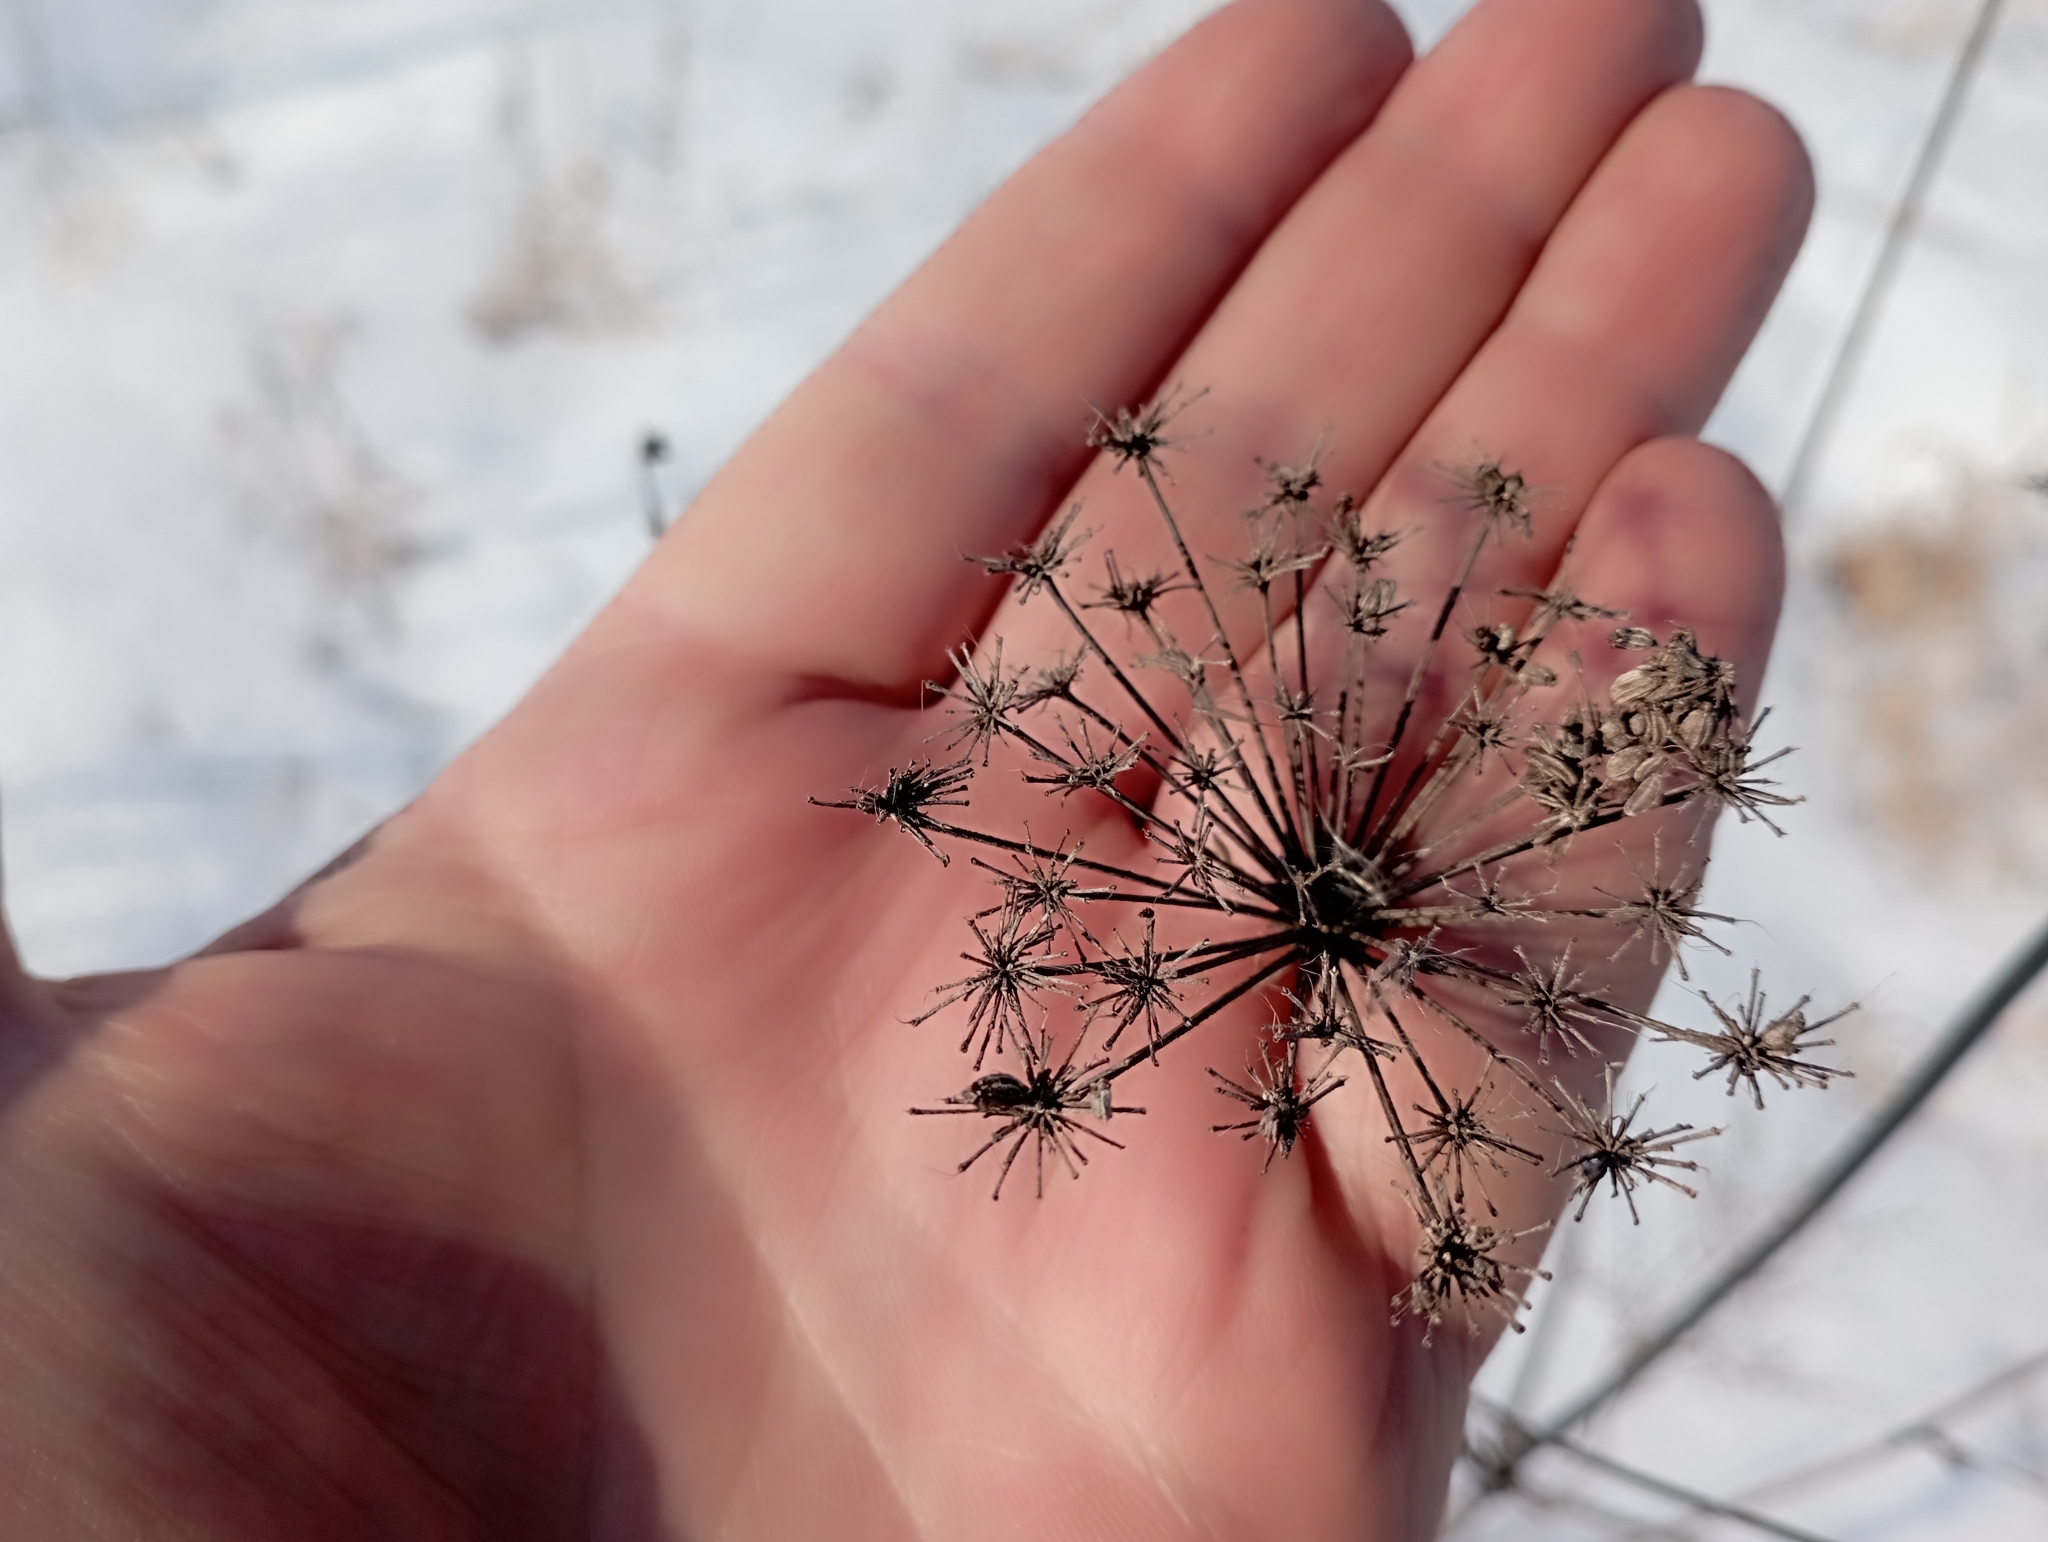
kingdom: Plantae
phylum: Tracheophyta
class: Magnoliopsida
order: Apiales
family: Apiaceae
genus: Seseli
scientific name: Seseli libanotis
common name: Mooncarrot
